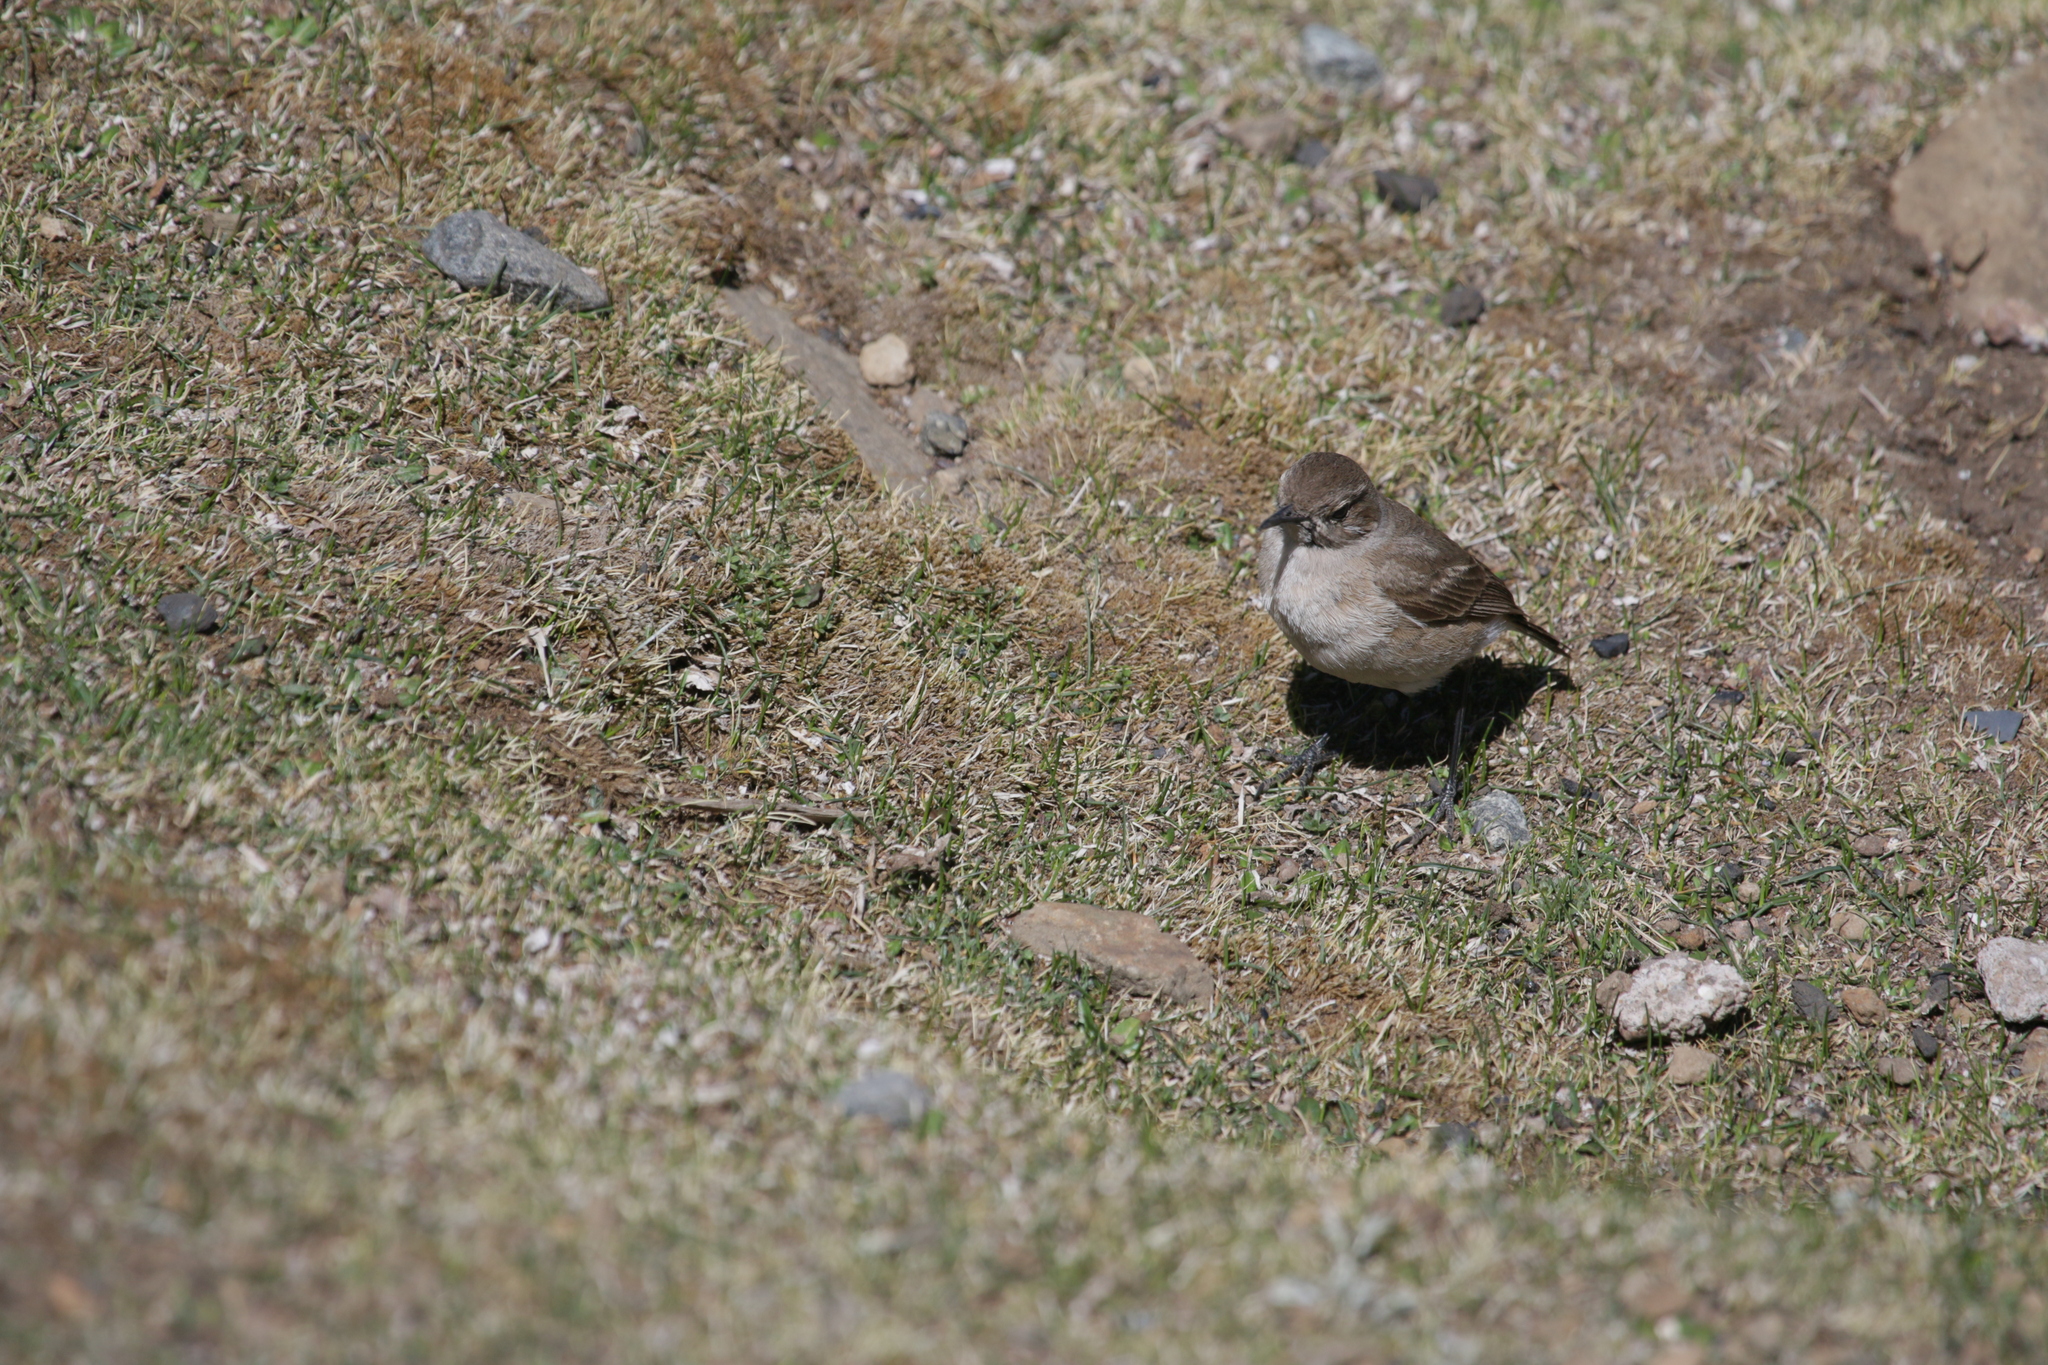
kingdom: Animalia
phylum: Chordata
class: Aves
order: Passeriformes
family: Muscicapidae
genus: Emarginata
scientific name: Emarginata sinuata
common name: Sickle-winged chat
